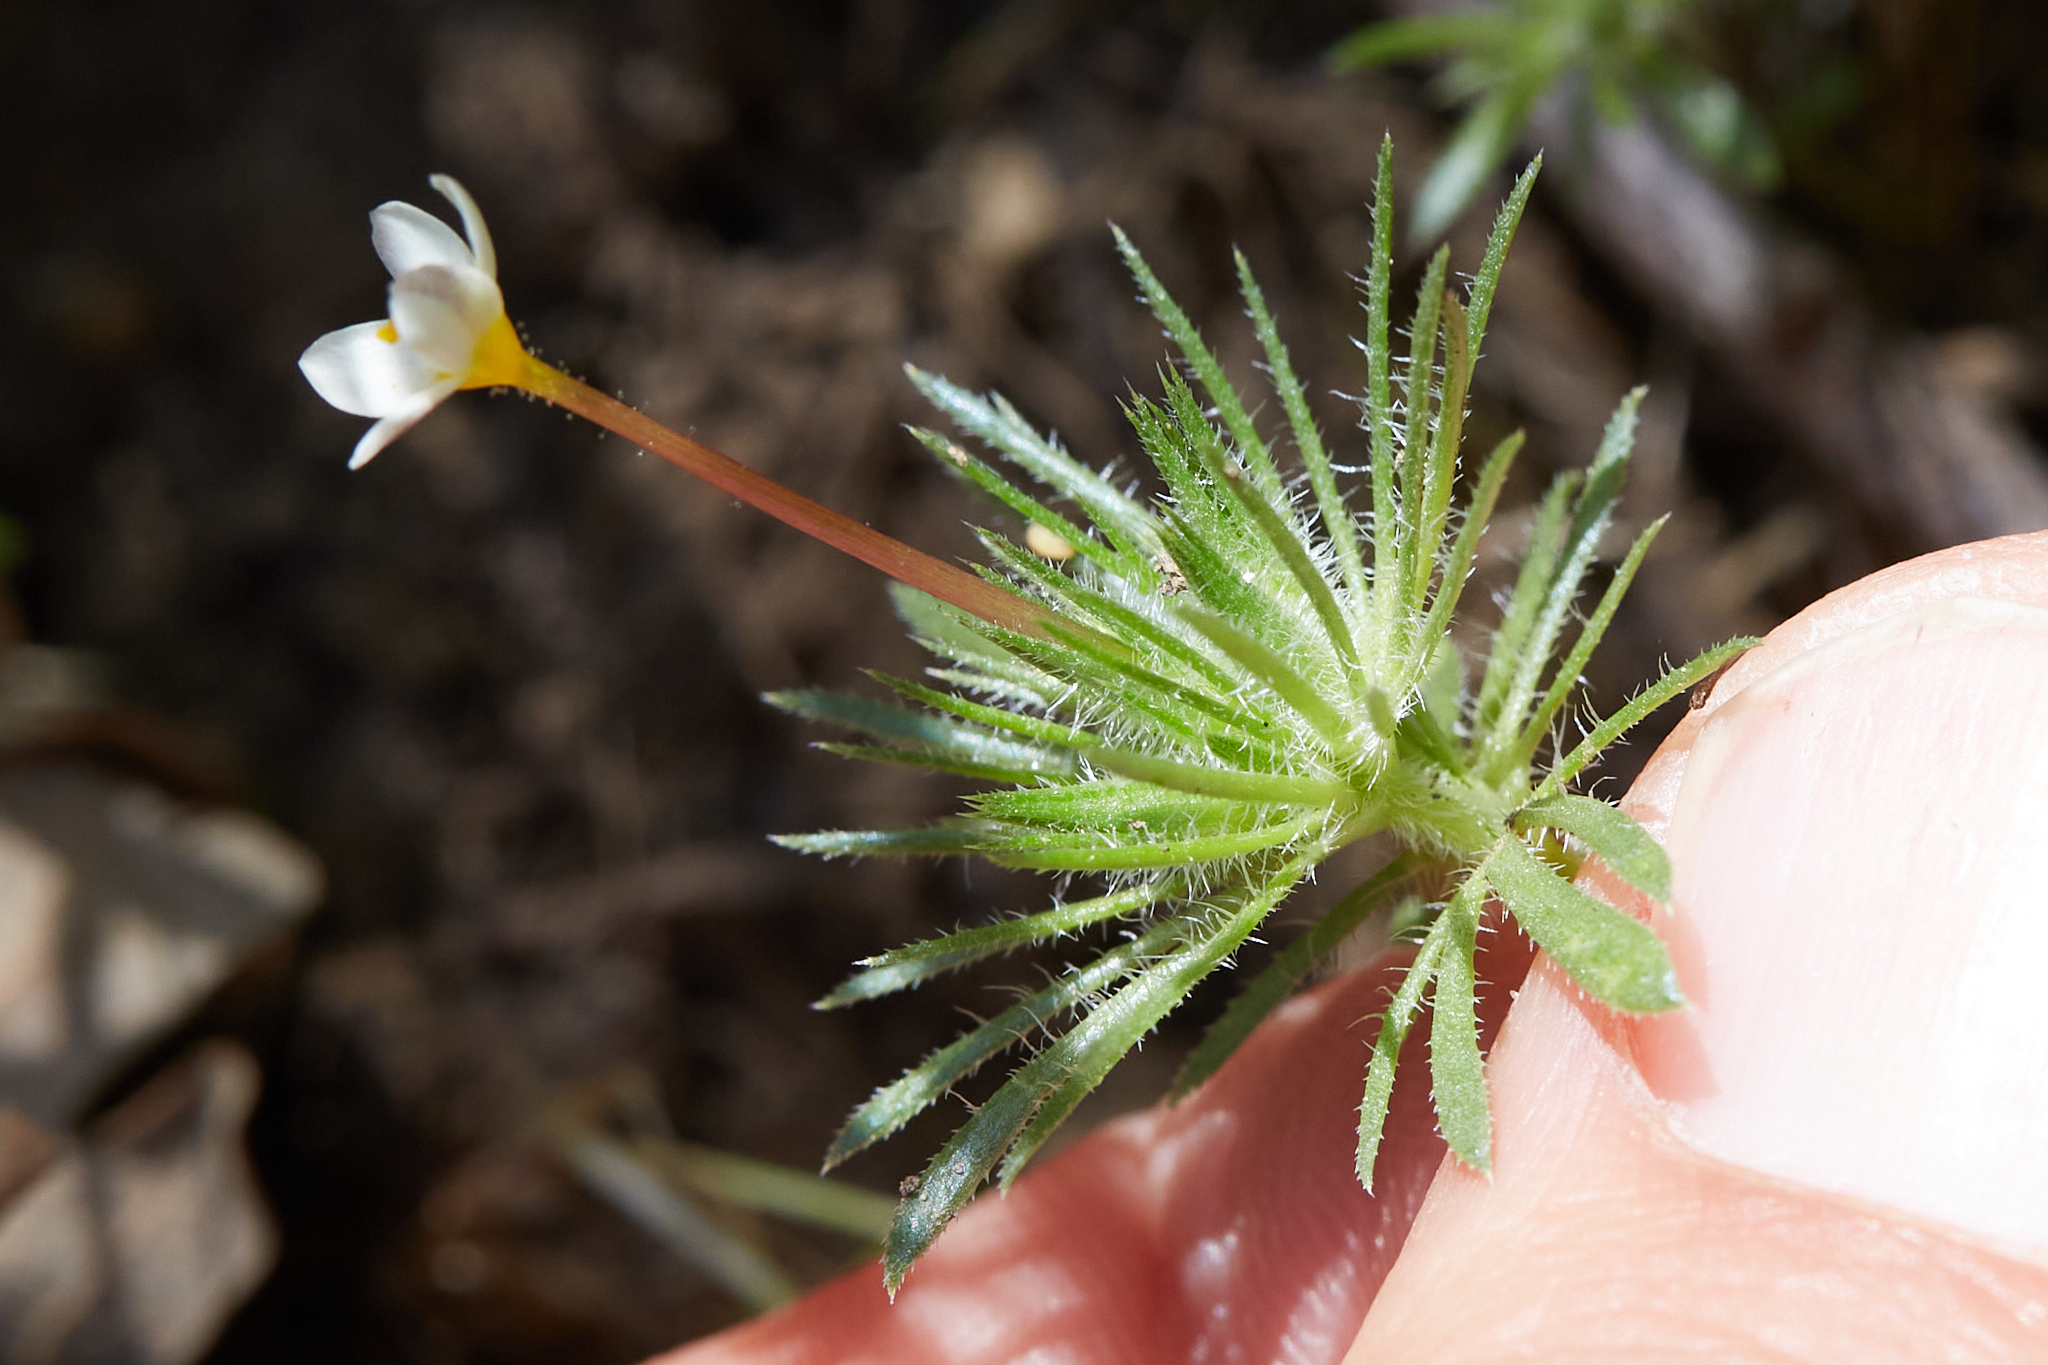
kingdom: Plantae
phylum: Tracheophyta
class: Magnoliopsida
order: Ericales
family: Polemoniaceae
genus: Leptosiphon
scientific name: Leptosiphon bicolor
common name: True babystars
